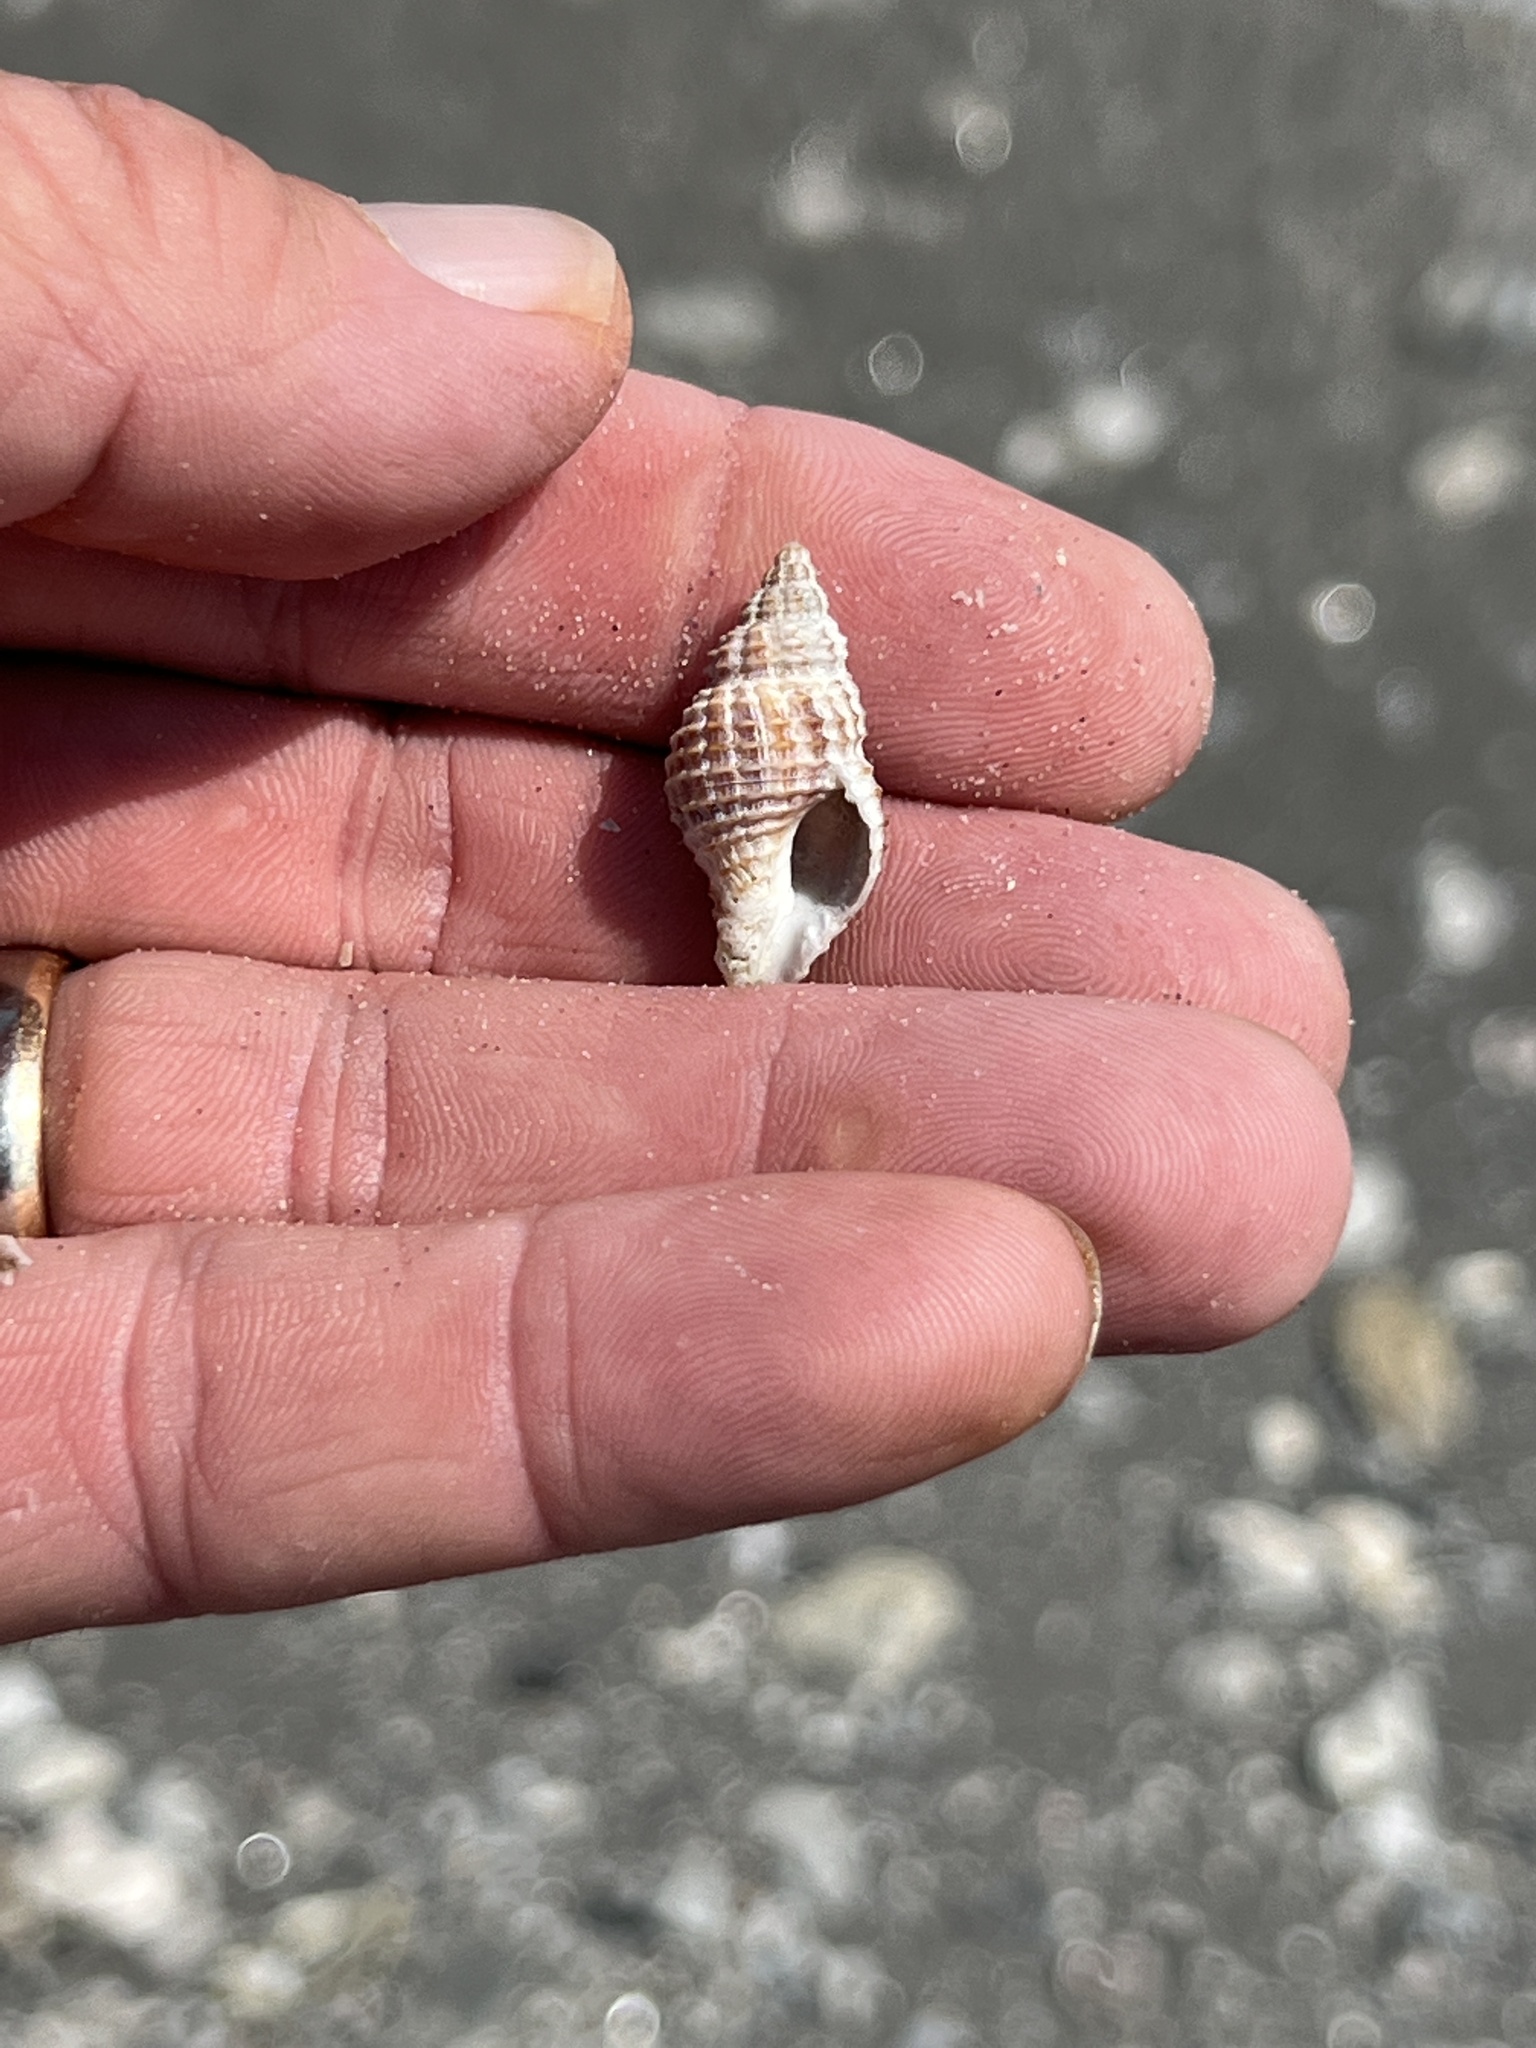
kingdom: Animalia
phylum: Mollusca
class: Gastropoda
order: Neogastropoda
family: Pisaniidae
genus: Solenosteira
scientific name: Solenosteira cancellaria
